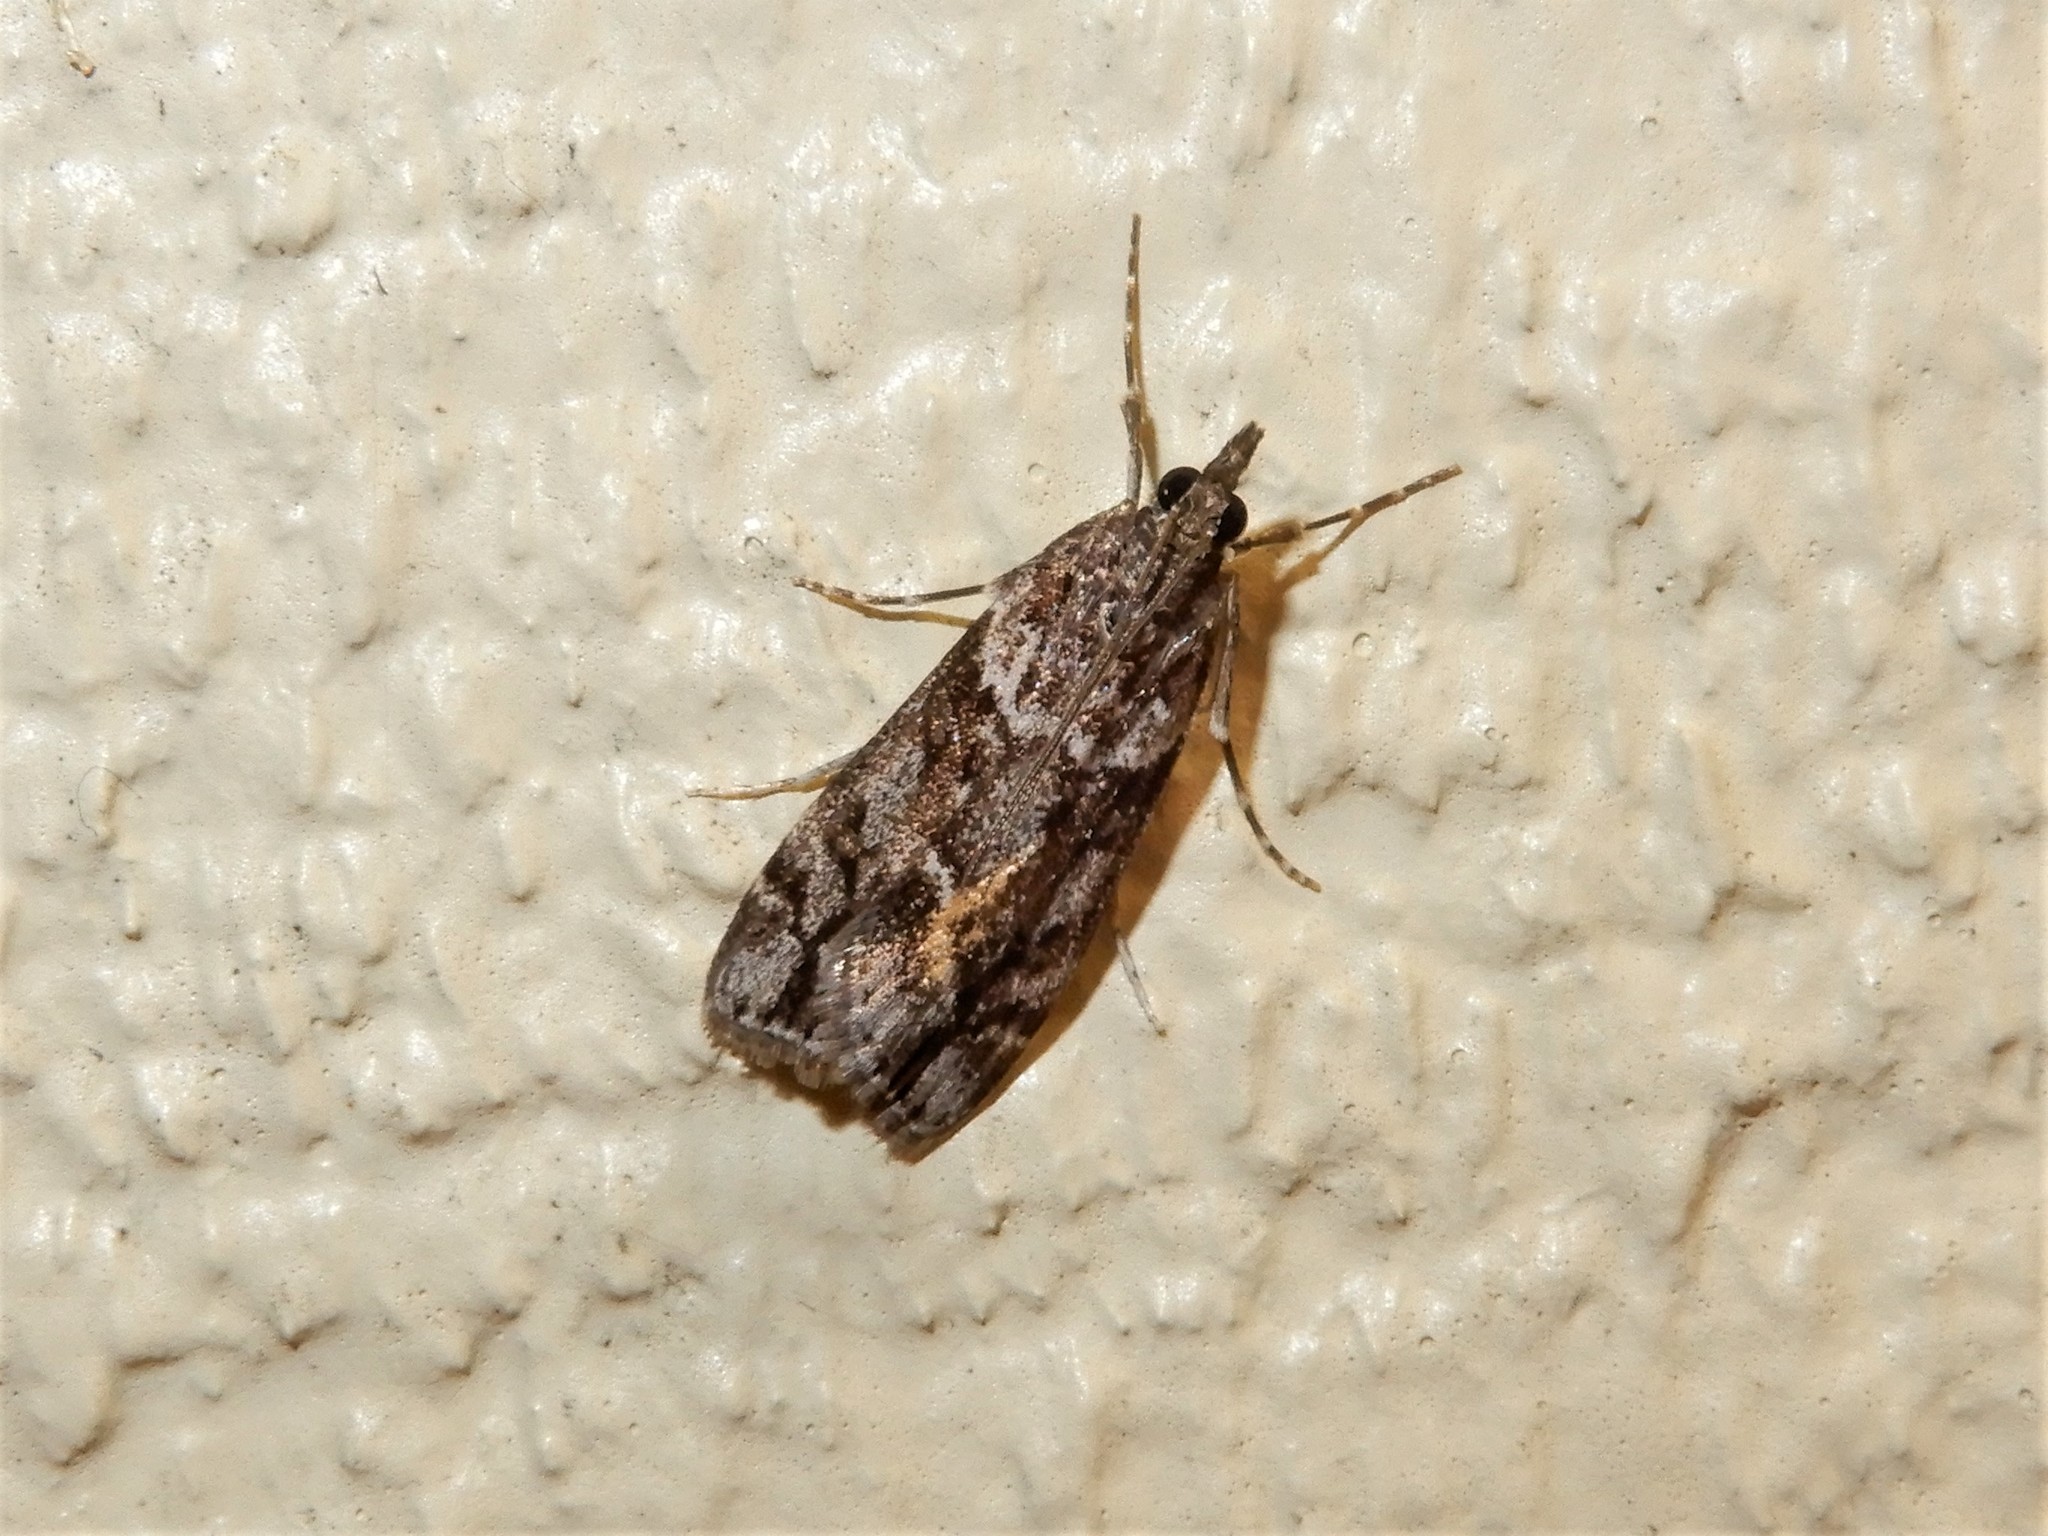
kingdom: Animalia
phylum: Arthropoda
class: Insecta
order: Lepidoptera
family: Crambidae
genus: Eudonia
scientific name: Eudonia submarginalis
